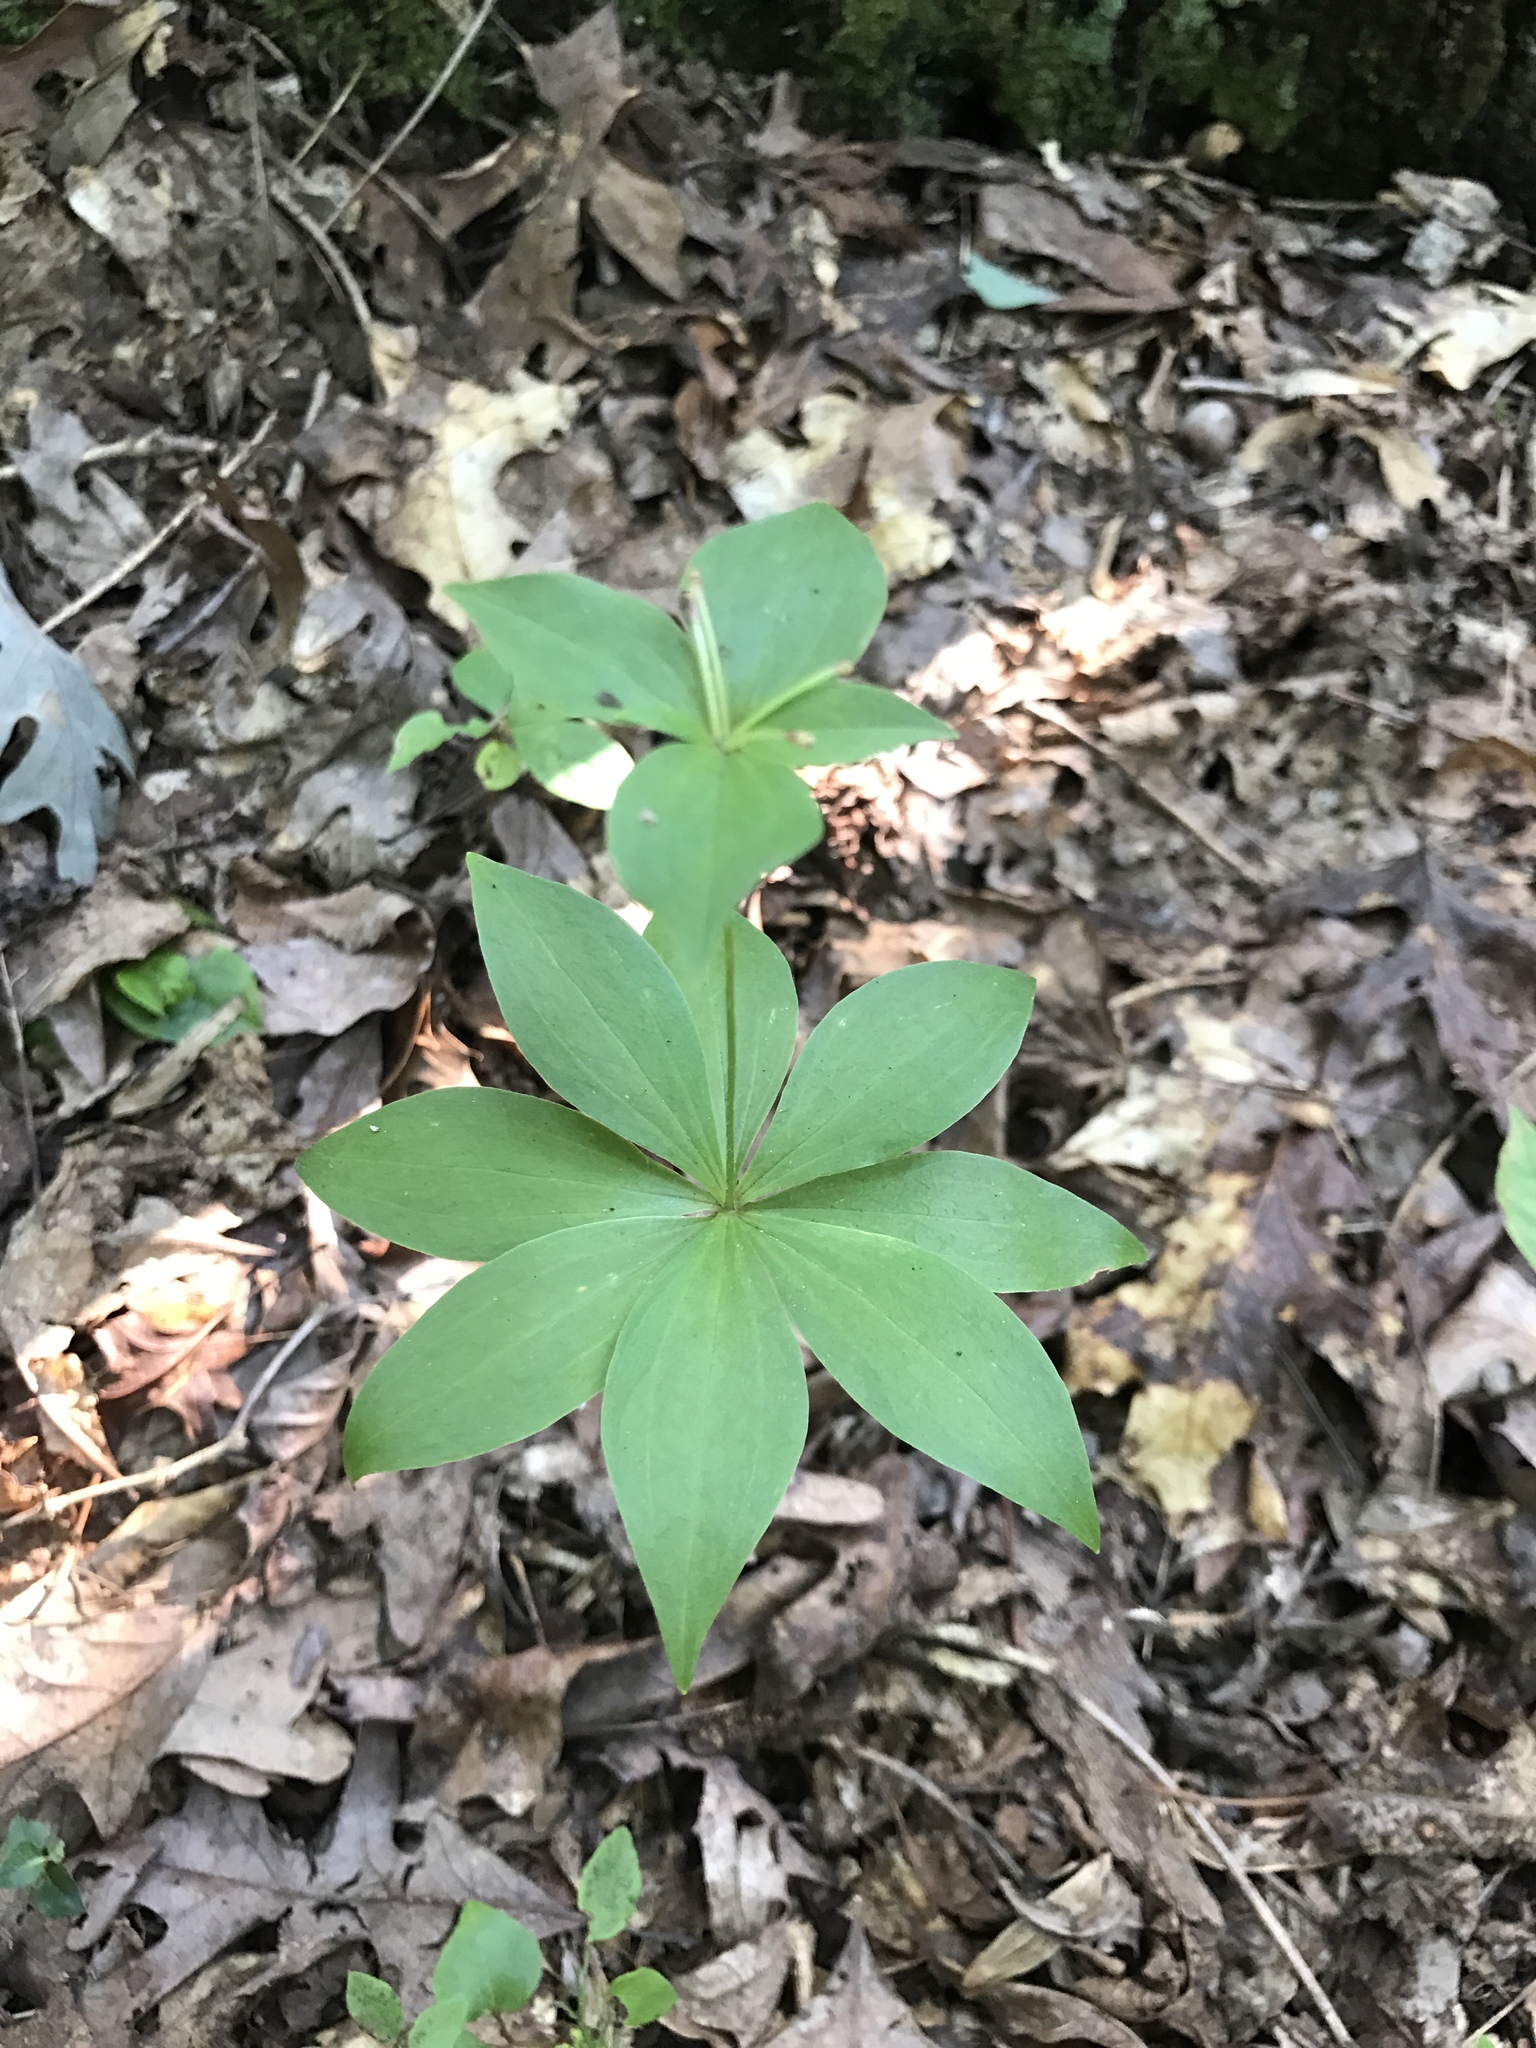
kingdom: Plantae
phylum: Tracheophyta
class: Liliopsida
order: Liliales
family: Liliaceae
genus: Medeola
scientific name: Medeola virginiana
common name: Indian cucumber-root
